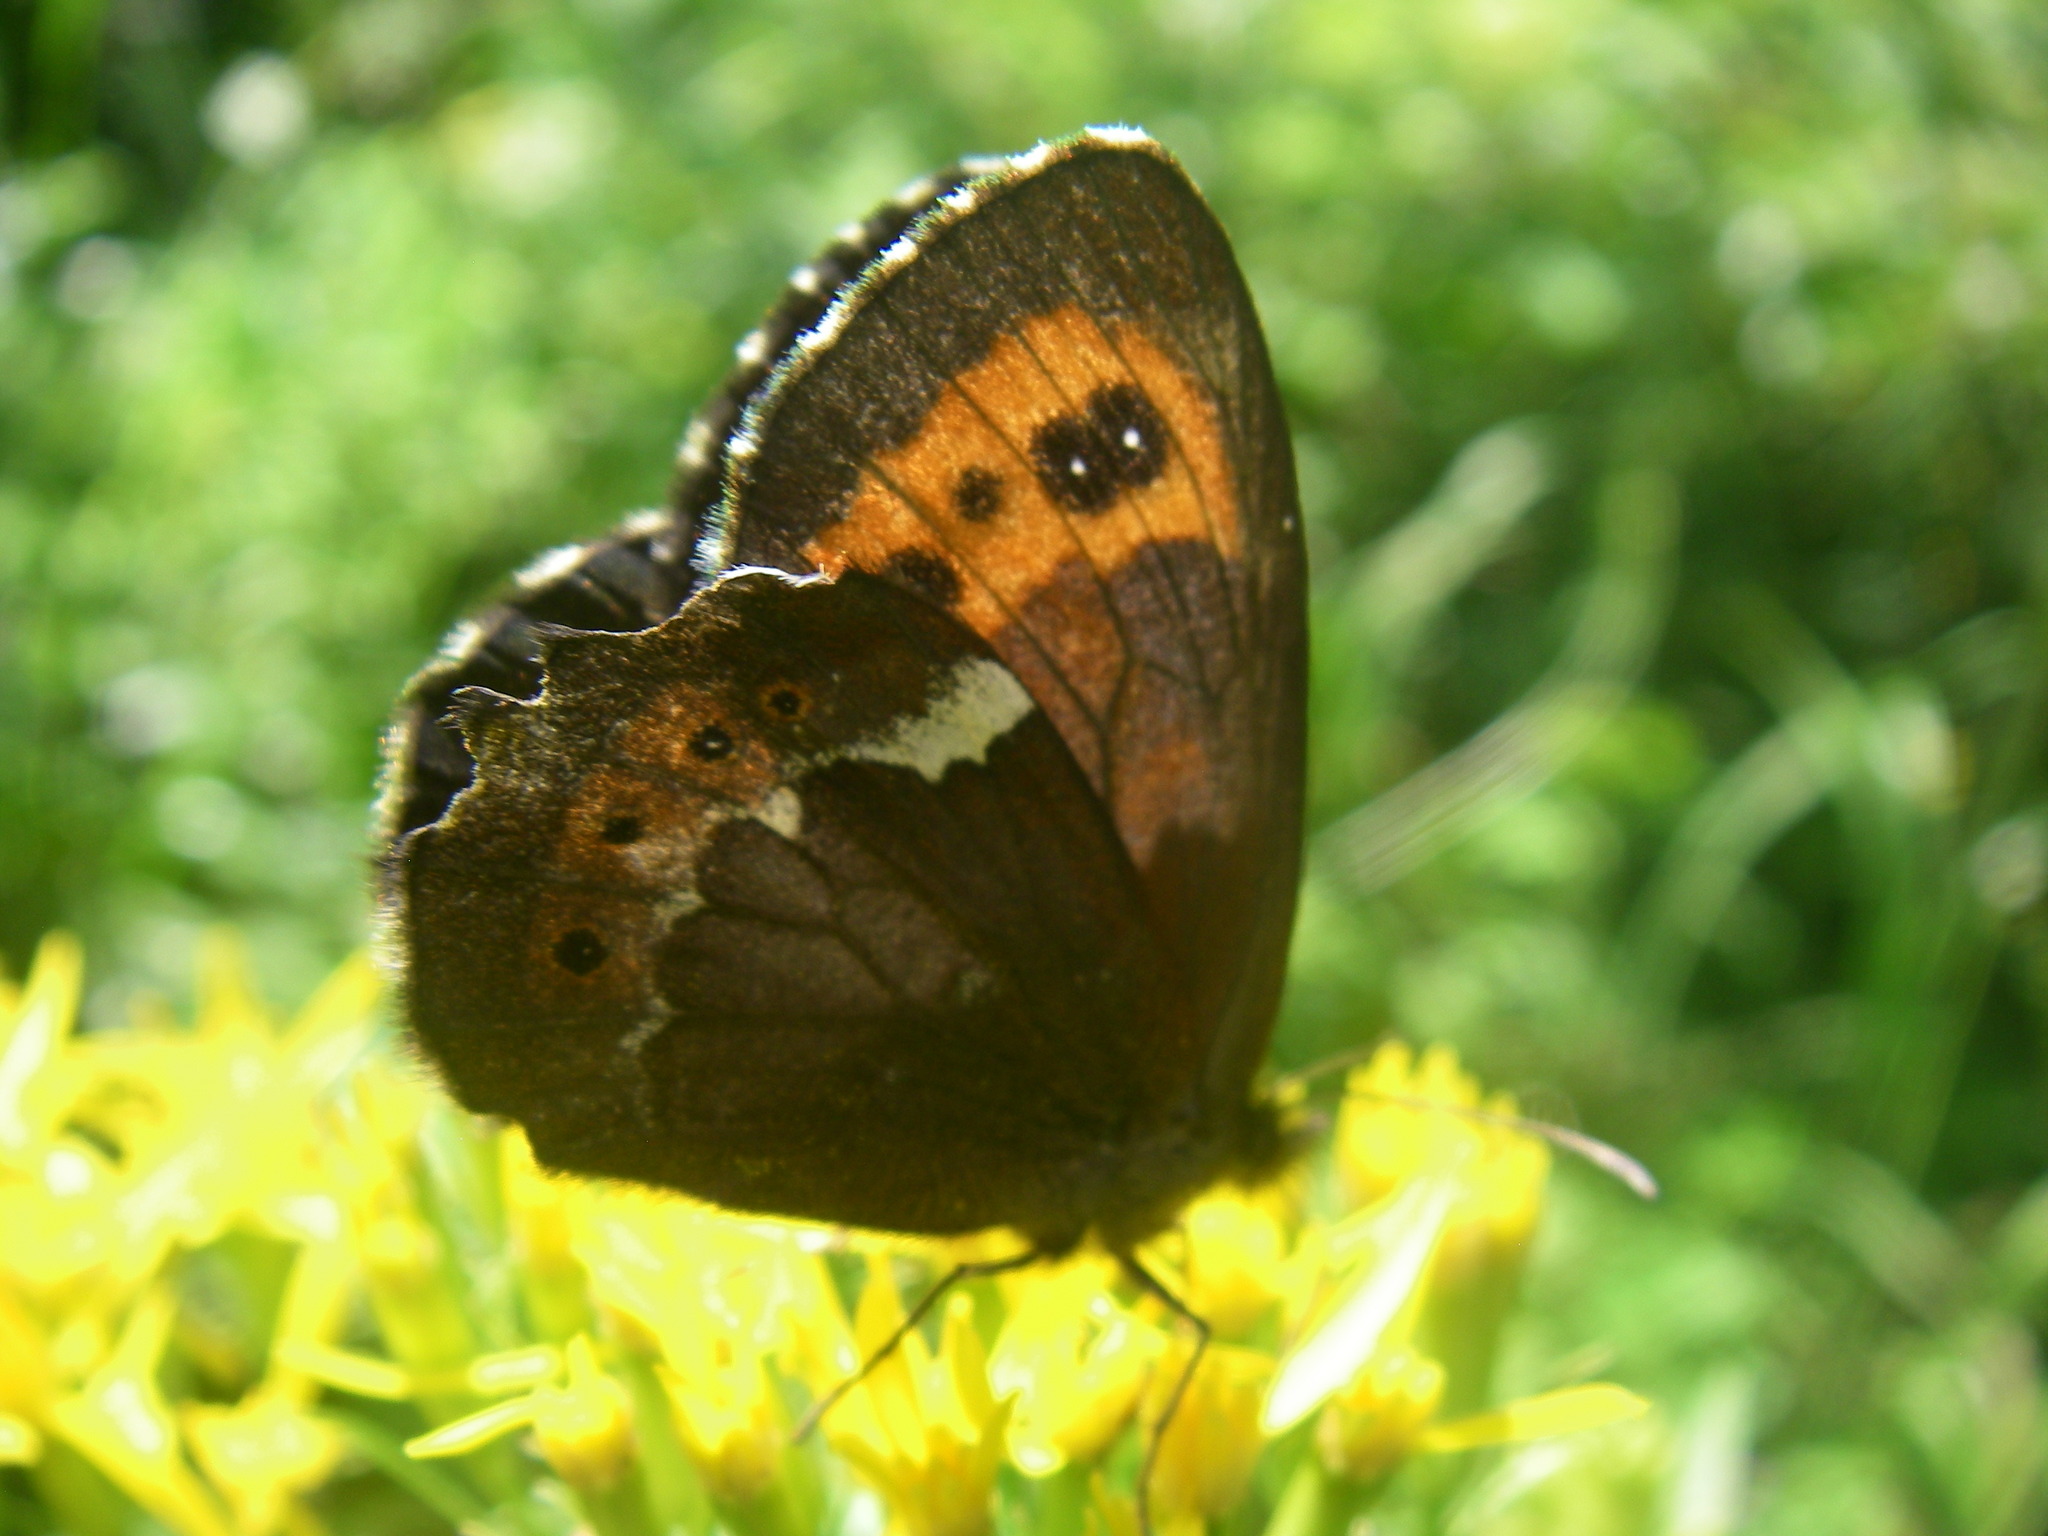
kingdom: Animalia
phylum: Arthropoda
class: Insecta
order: Lepidoptera
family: Nymphalidae
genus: Erebia
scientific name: Erebia ligea
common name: Arran brown
